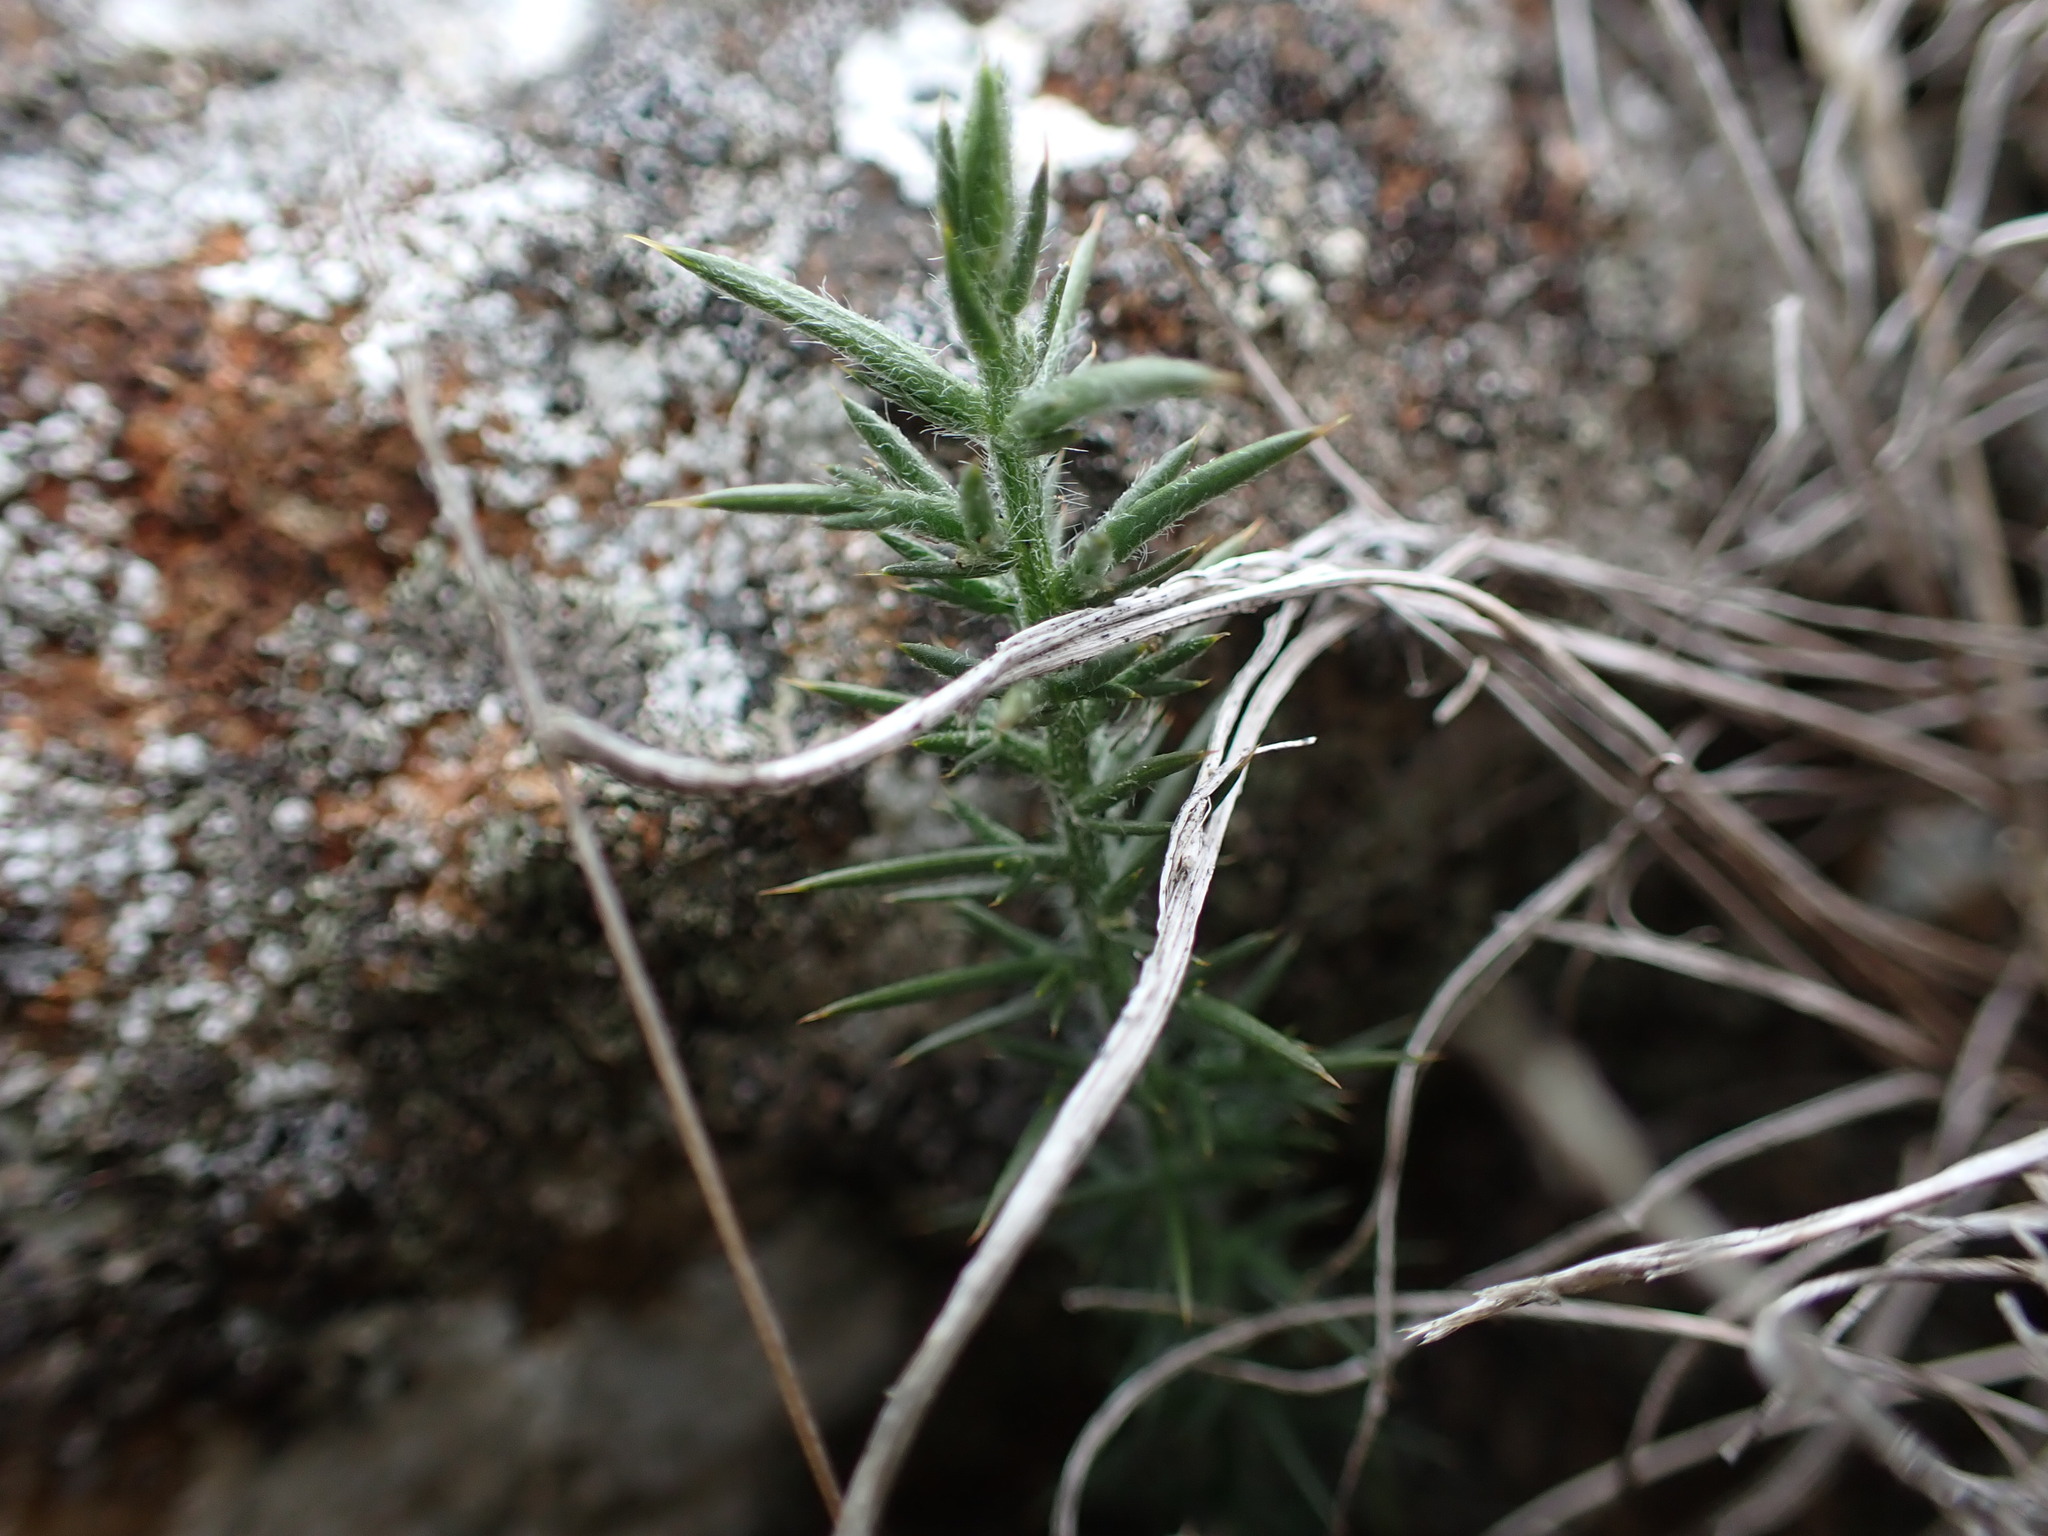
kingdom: Plantae
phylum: Tracheophyta
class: Magnoliopsida
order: Fabales
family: Fabaceae
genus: Ulex
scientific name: Ulex europaeus
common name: Common gorse
